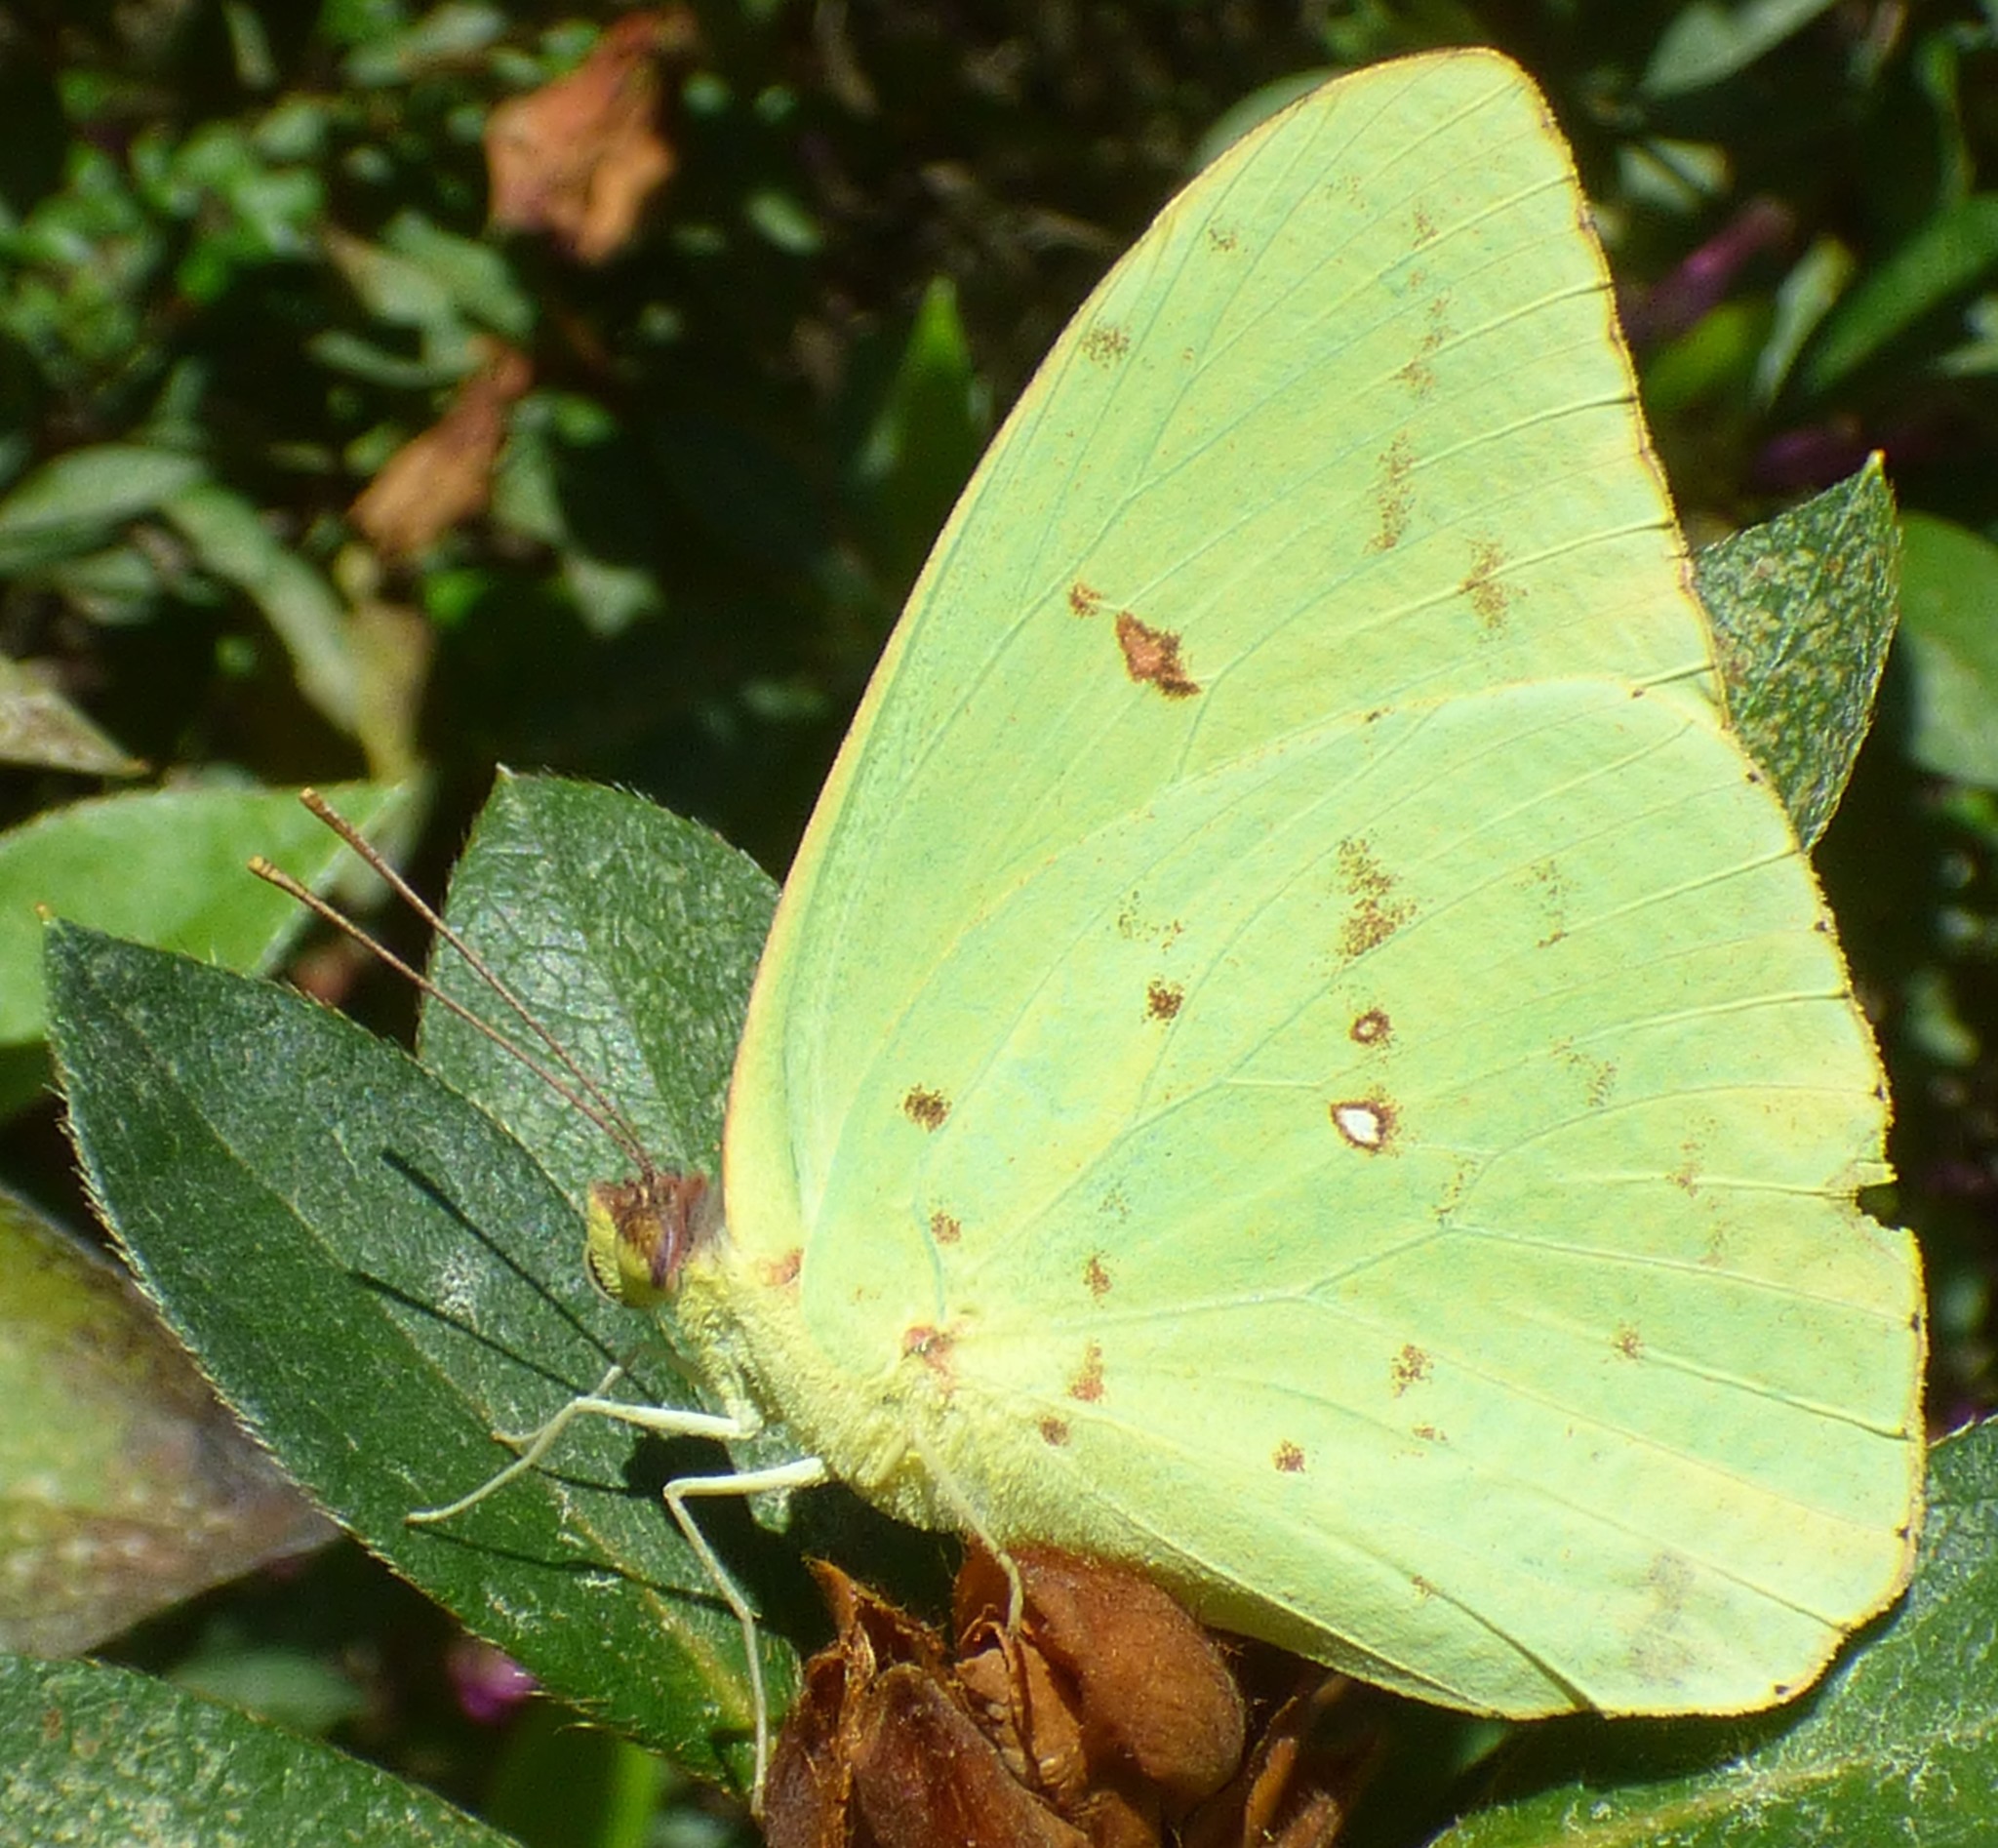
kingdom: Animalia
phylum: Arthropoda
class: Insecta
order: Lepidoptera
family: Pieridae
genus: Phoebis
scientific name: Phoebis sennae
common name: Cloudless sulphur
